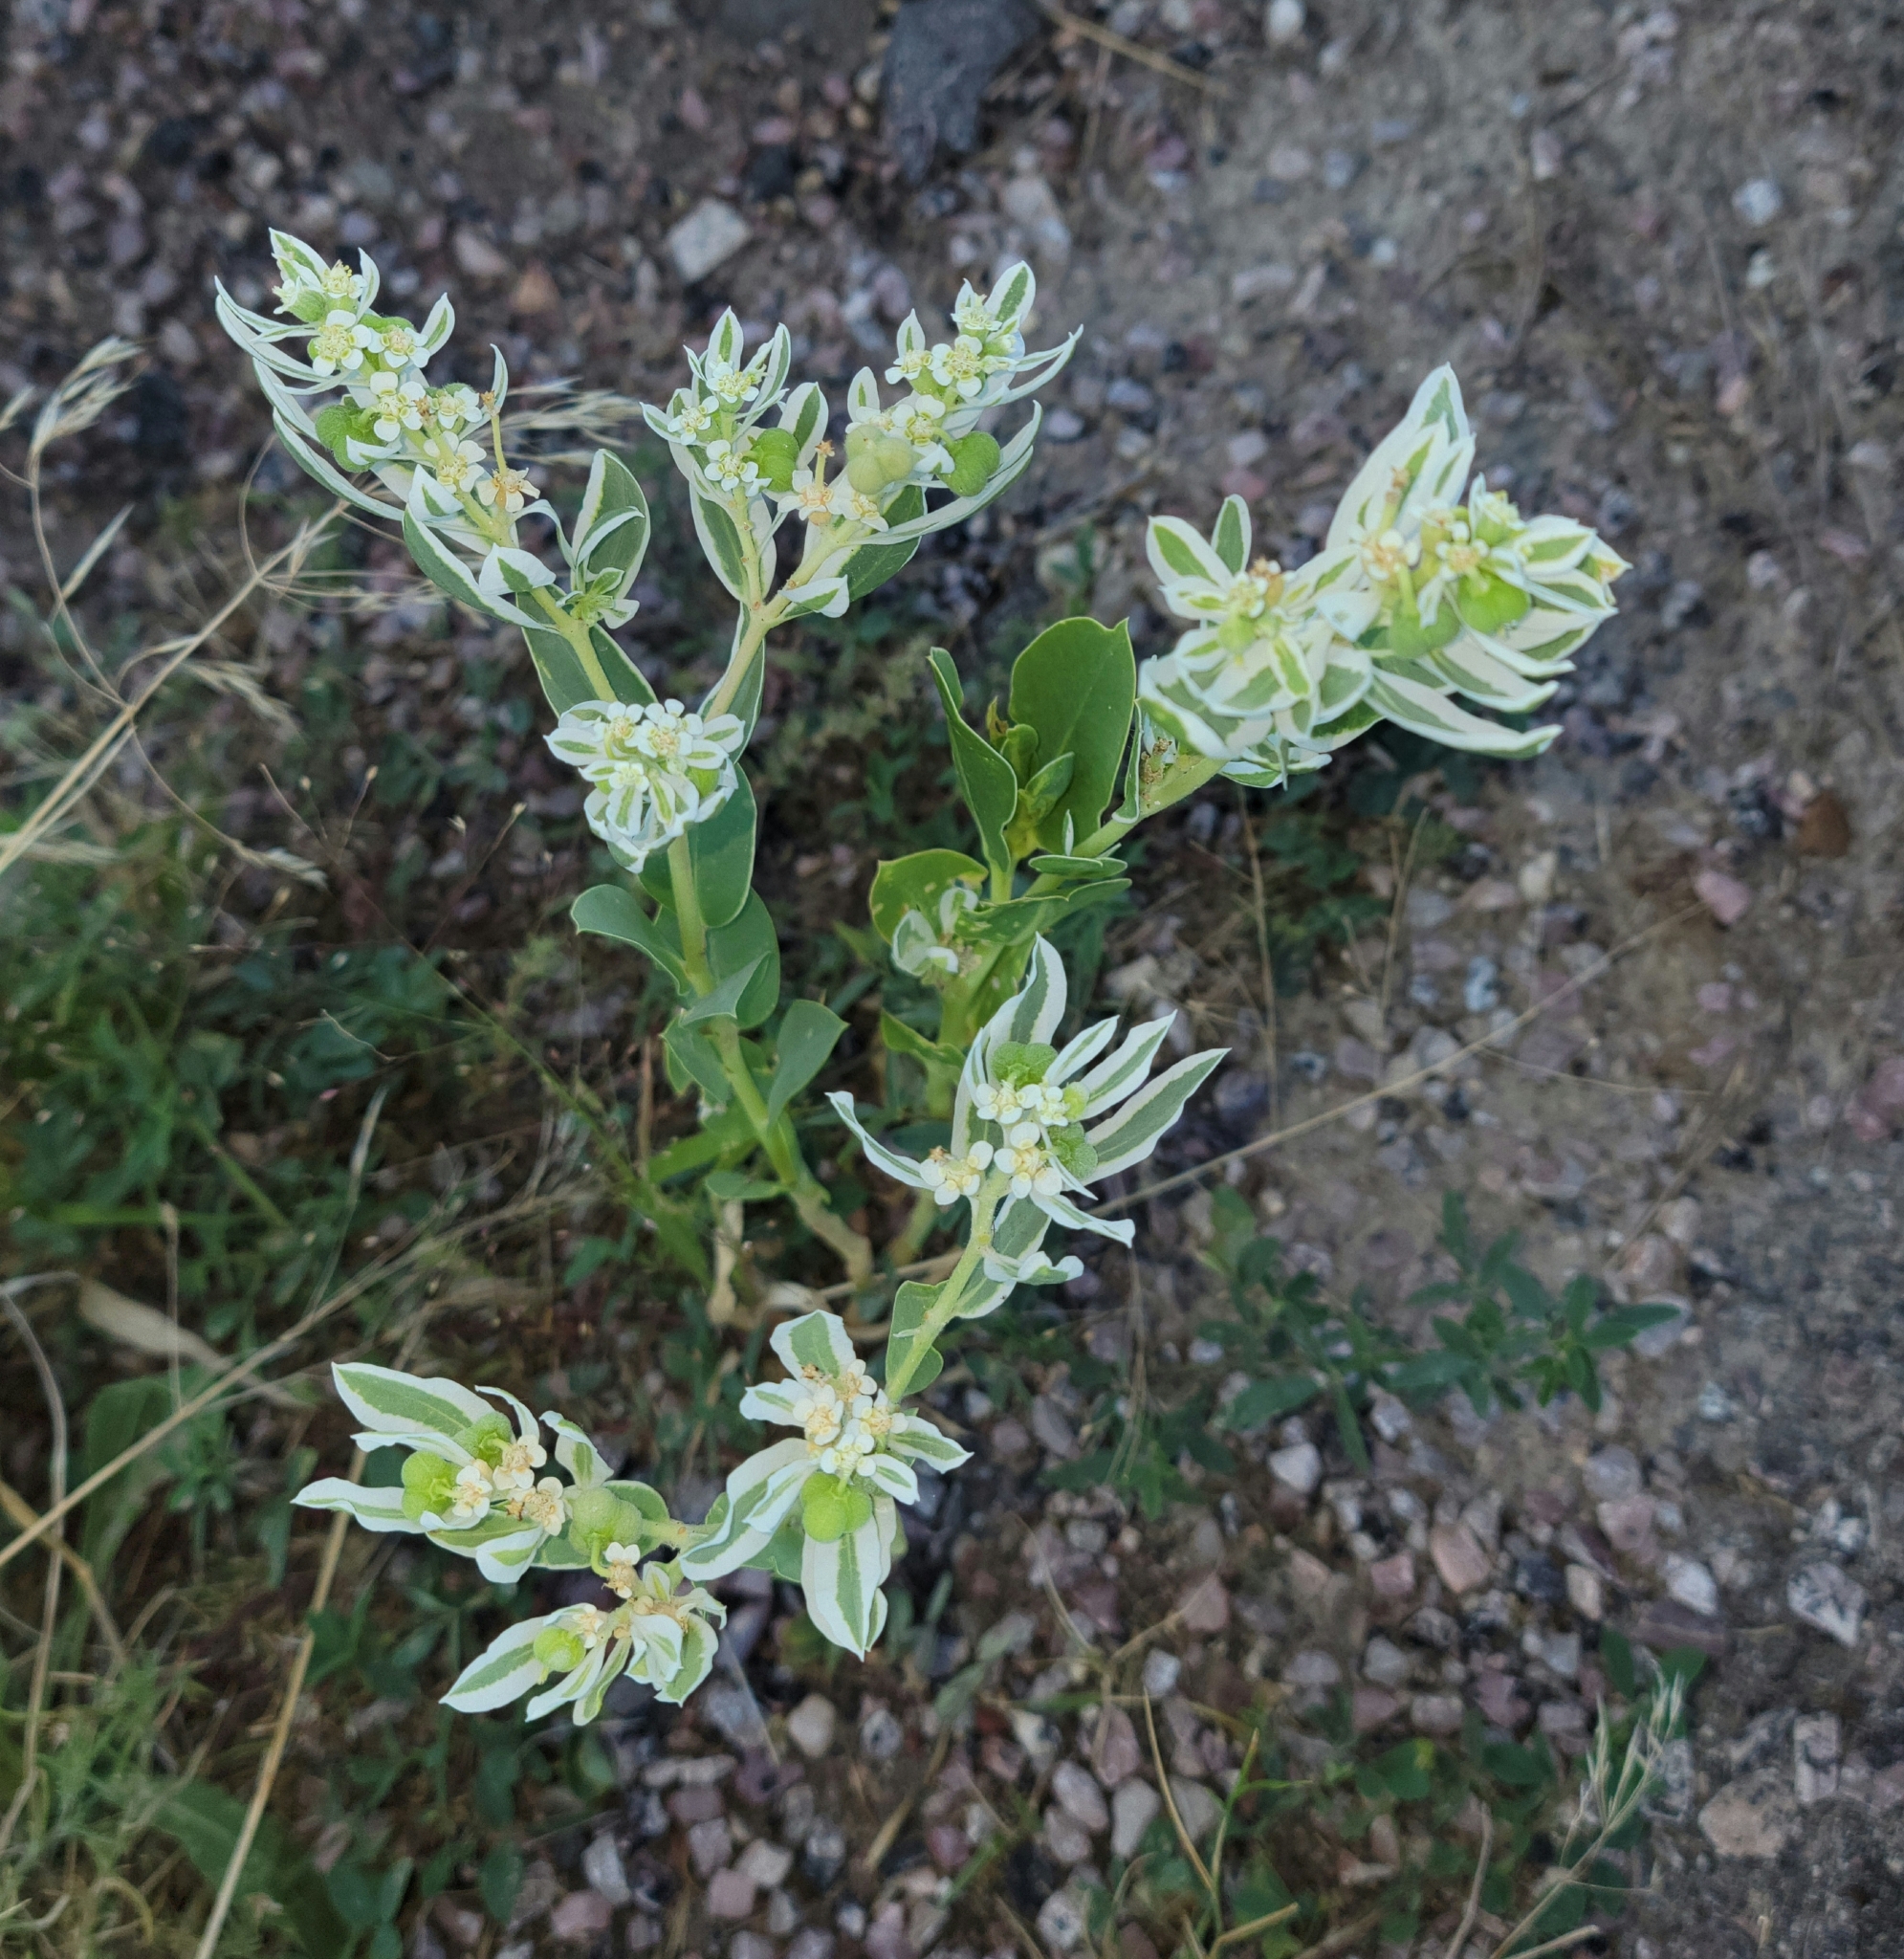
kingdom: Plantae
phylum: Tracheophyta
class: Magnoliopsida
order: Malpighiales
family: Euphorbiaceae
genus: Euphorbia
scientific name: Euphorbia marginata
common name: Ghostweed
